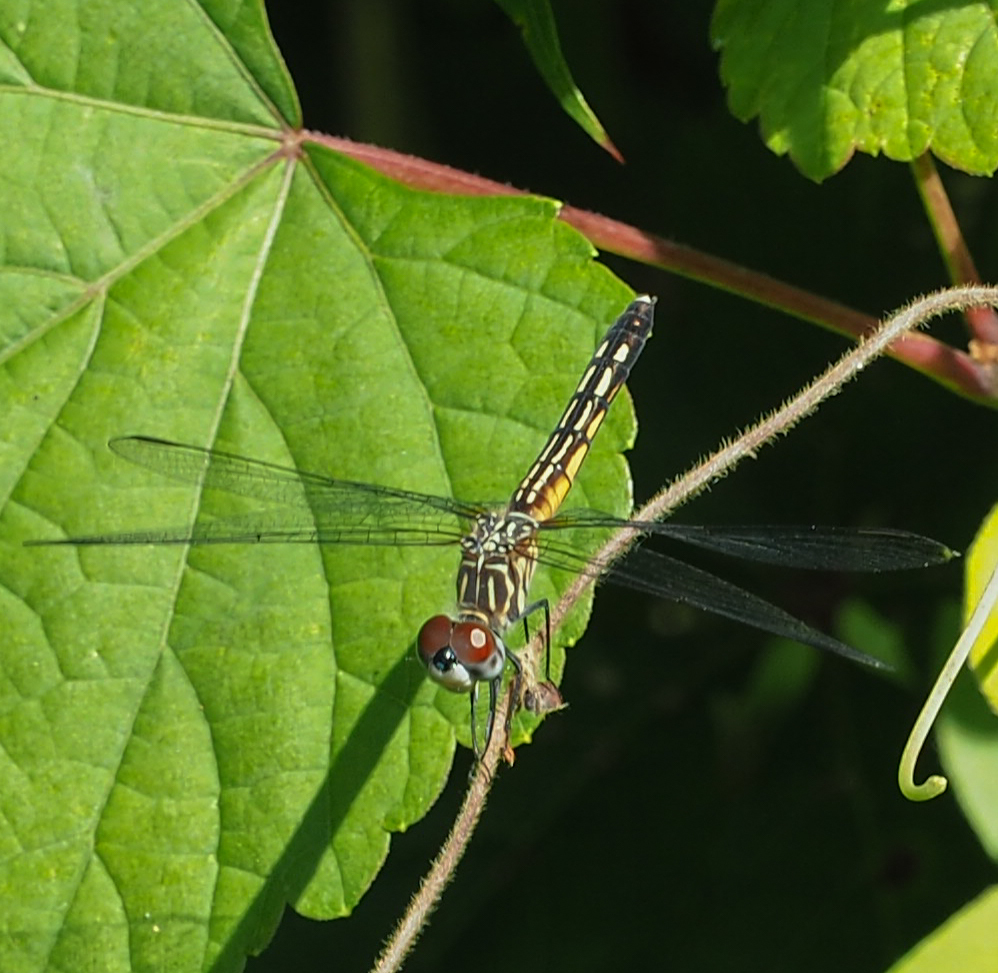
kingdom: Animalia
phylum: Arthropoda
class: Insecta
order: Odonata
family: Libellulidae
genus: Pachydiplax
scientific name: Pachydiplax longipennis
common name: Blue dasher
